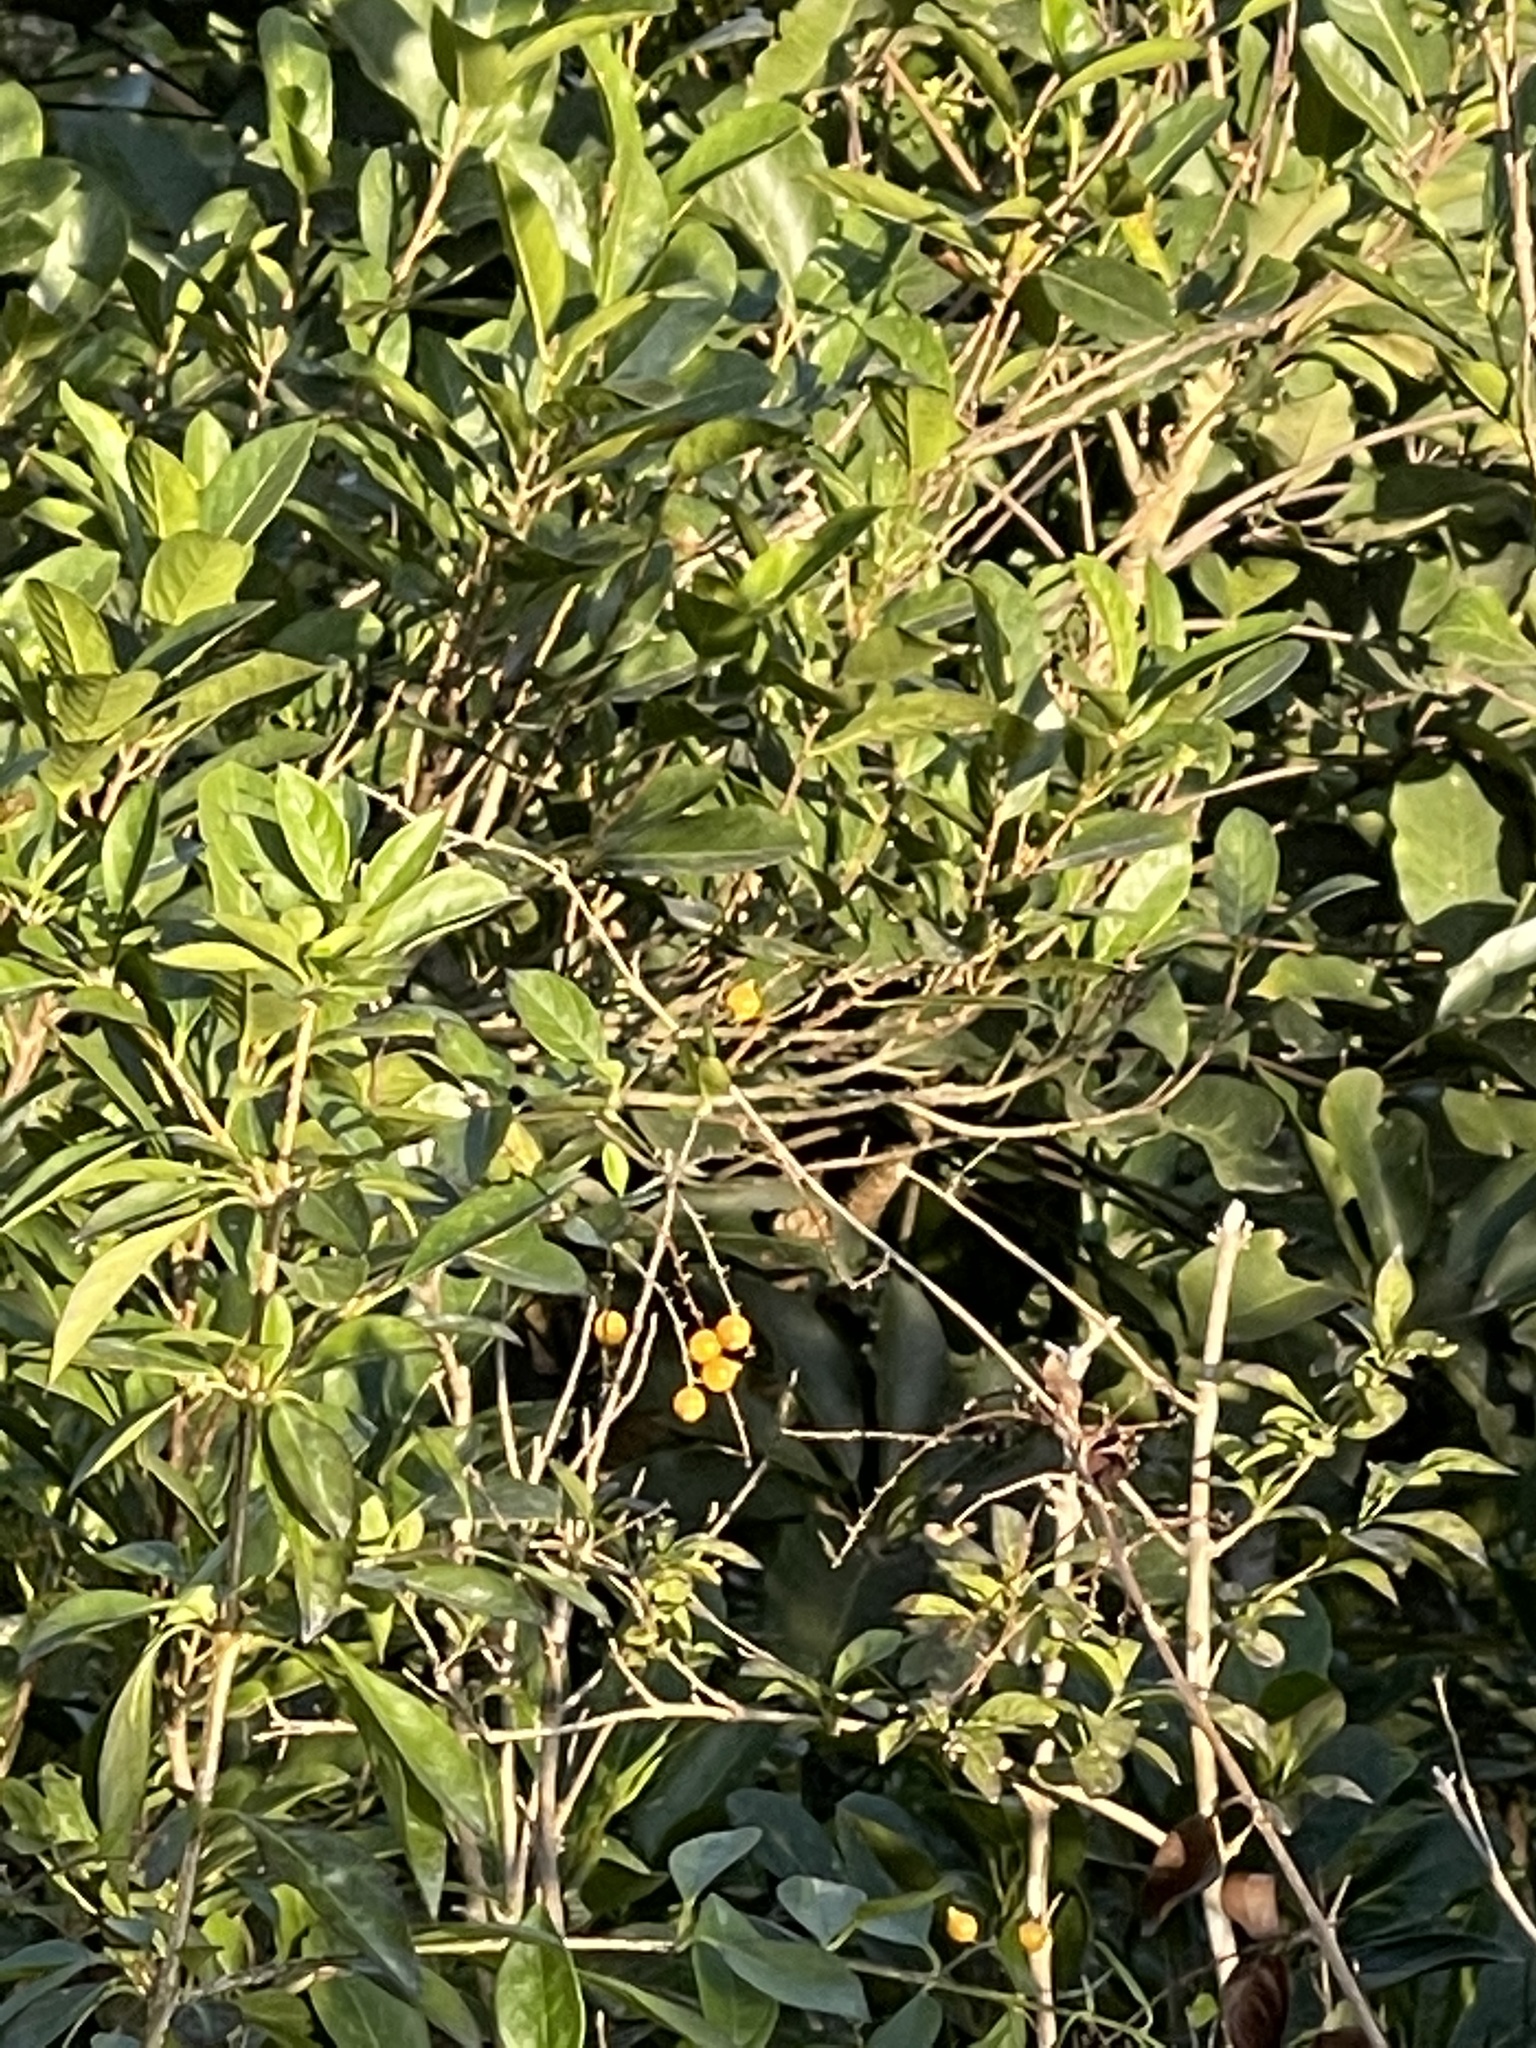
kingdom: Plantae
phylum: Tracheophyta
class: Magnoliopsida
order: Lamiales
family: Verbenaceae
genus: Duranta
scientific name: Duranta erecta
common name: Golden dewdrops
